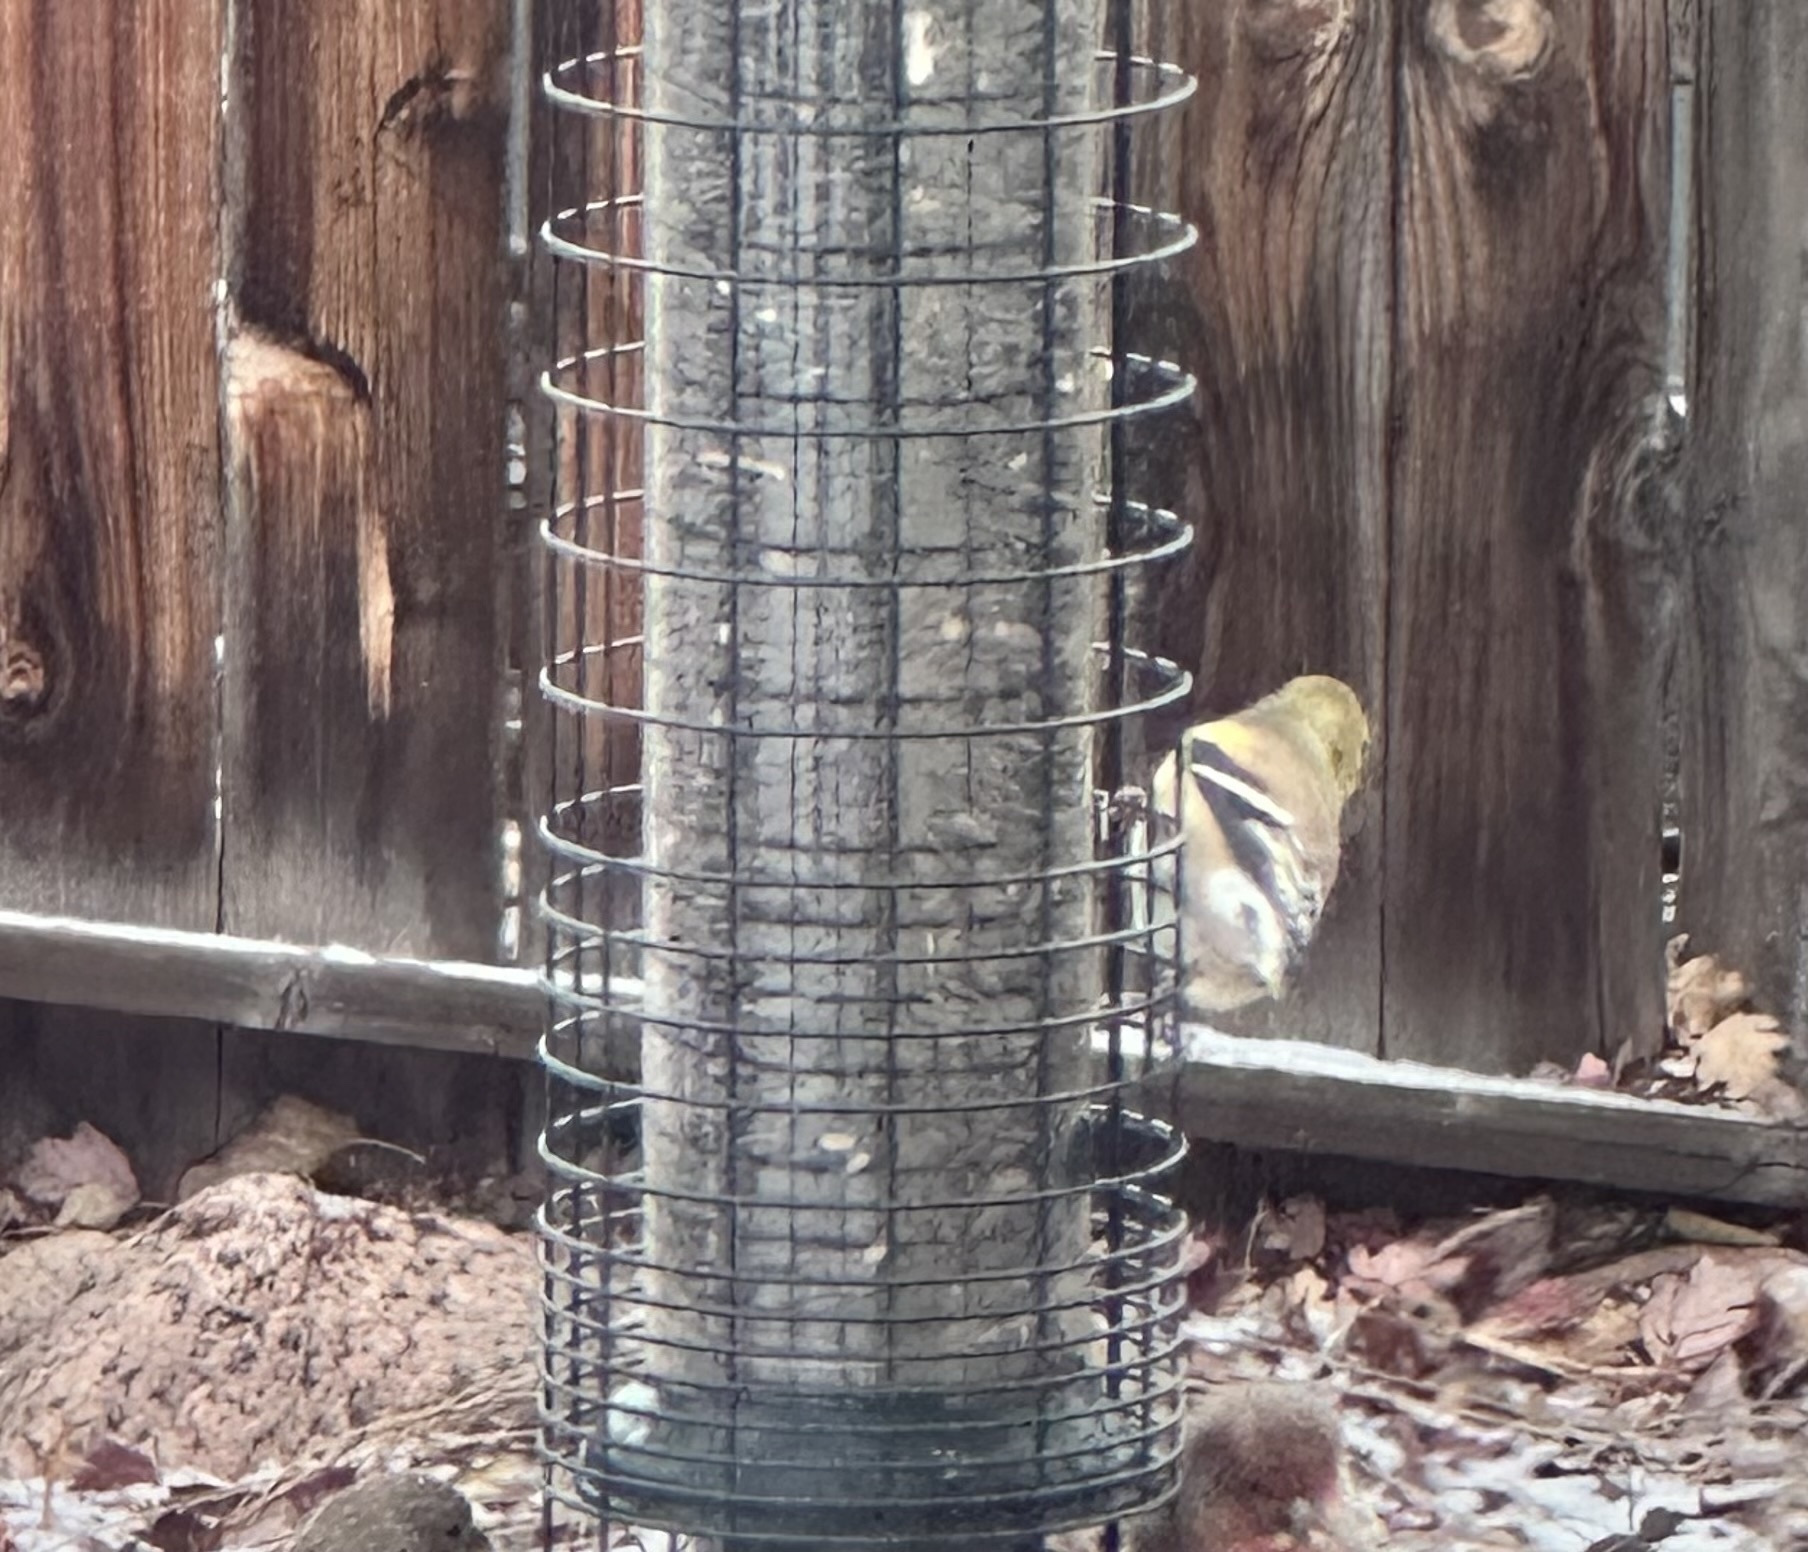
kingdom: Animalia
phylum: Chordata
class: Aves
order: Passeriformes
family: Fringillidae
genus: Spinus
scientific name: Spinus tristis
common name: American goldfinch
